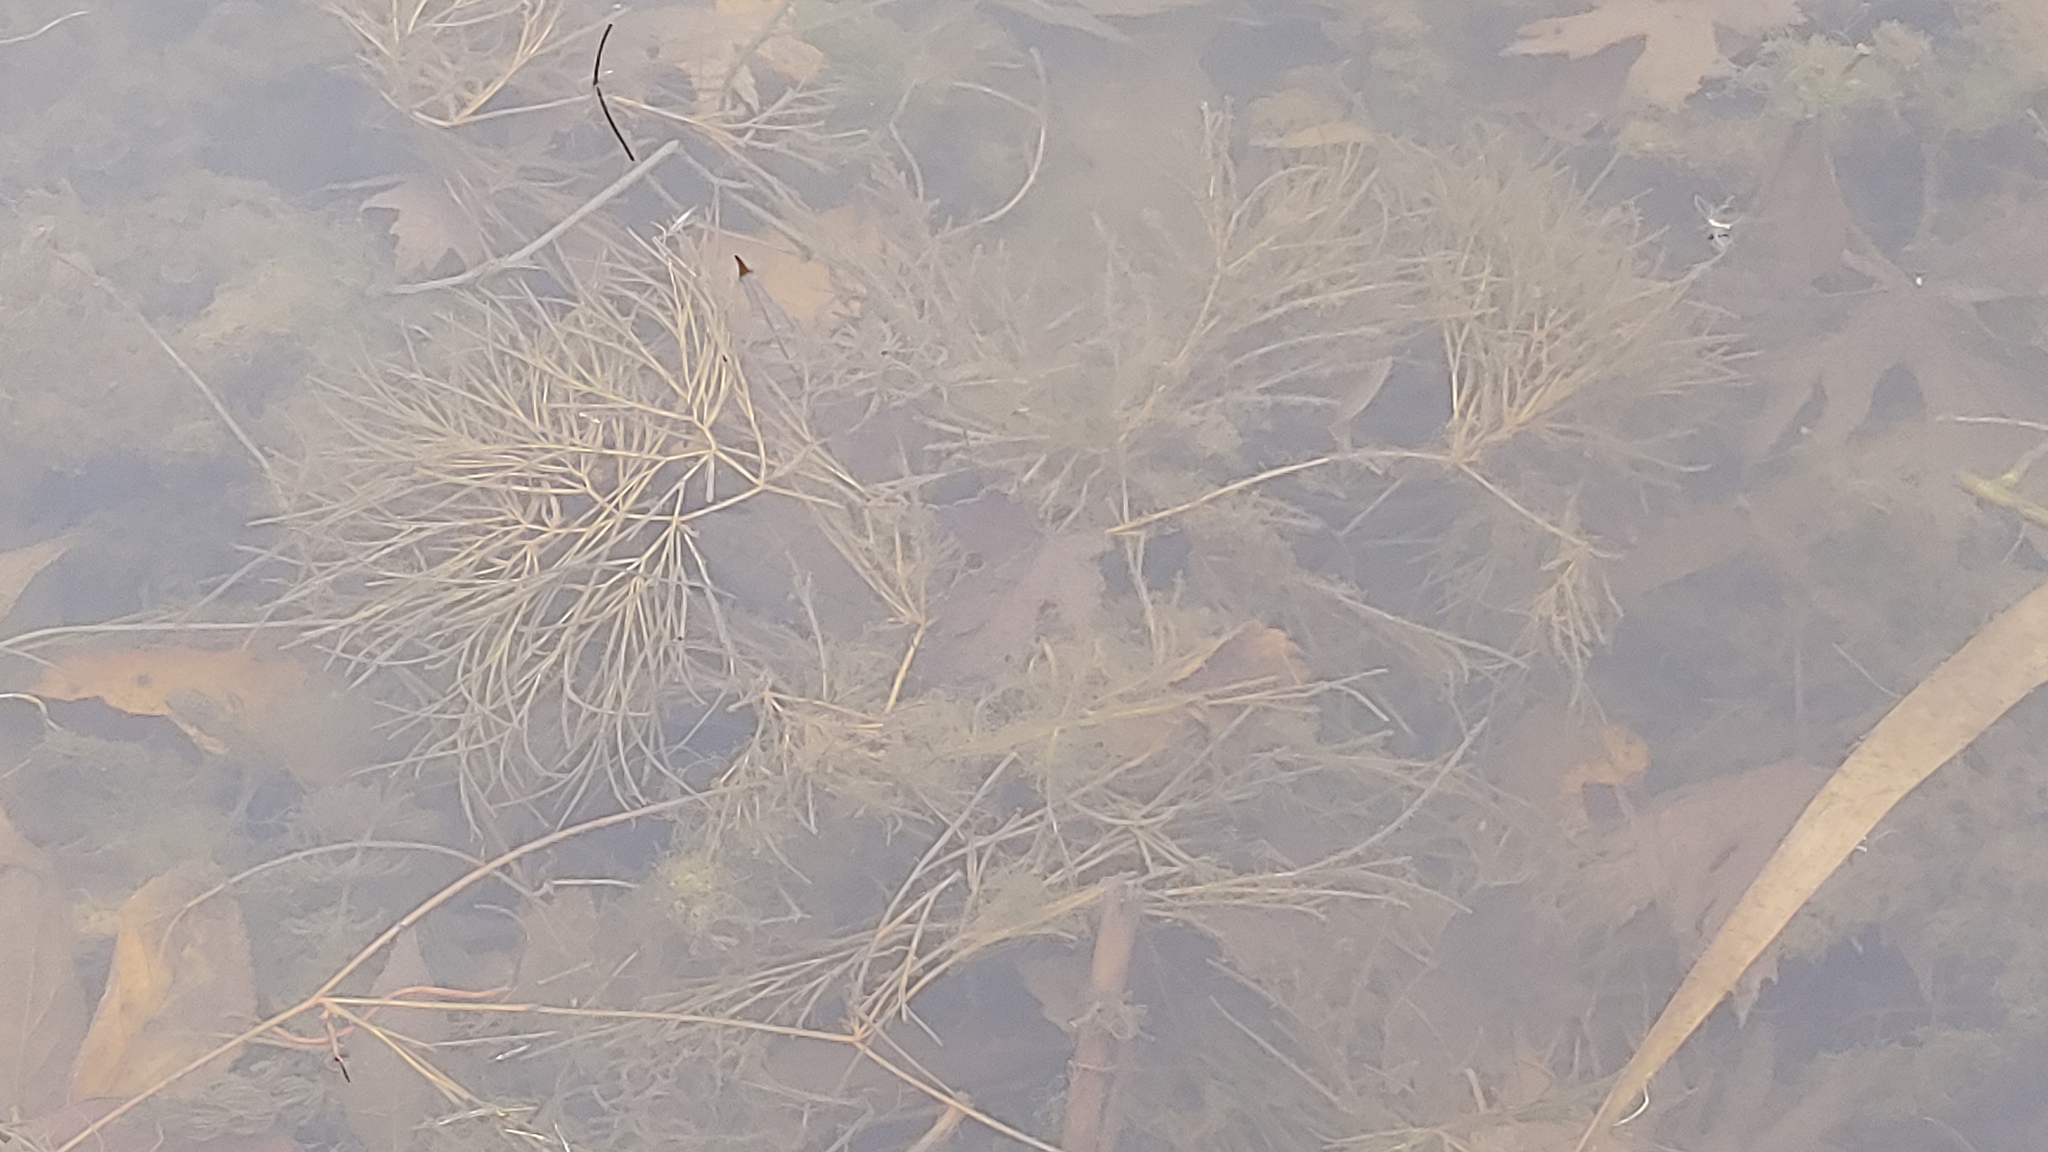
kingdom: Plantae
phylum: Tracheophyta
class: Liliopsida
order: Alismatales
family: Potamogetonaceae
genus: Stuckenia
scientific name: Stuckenia pectinata
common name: Sago pondweed
